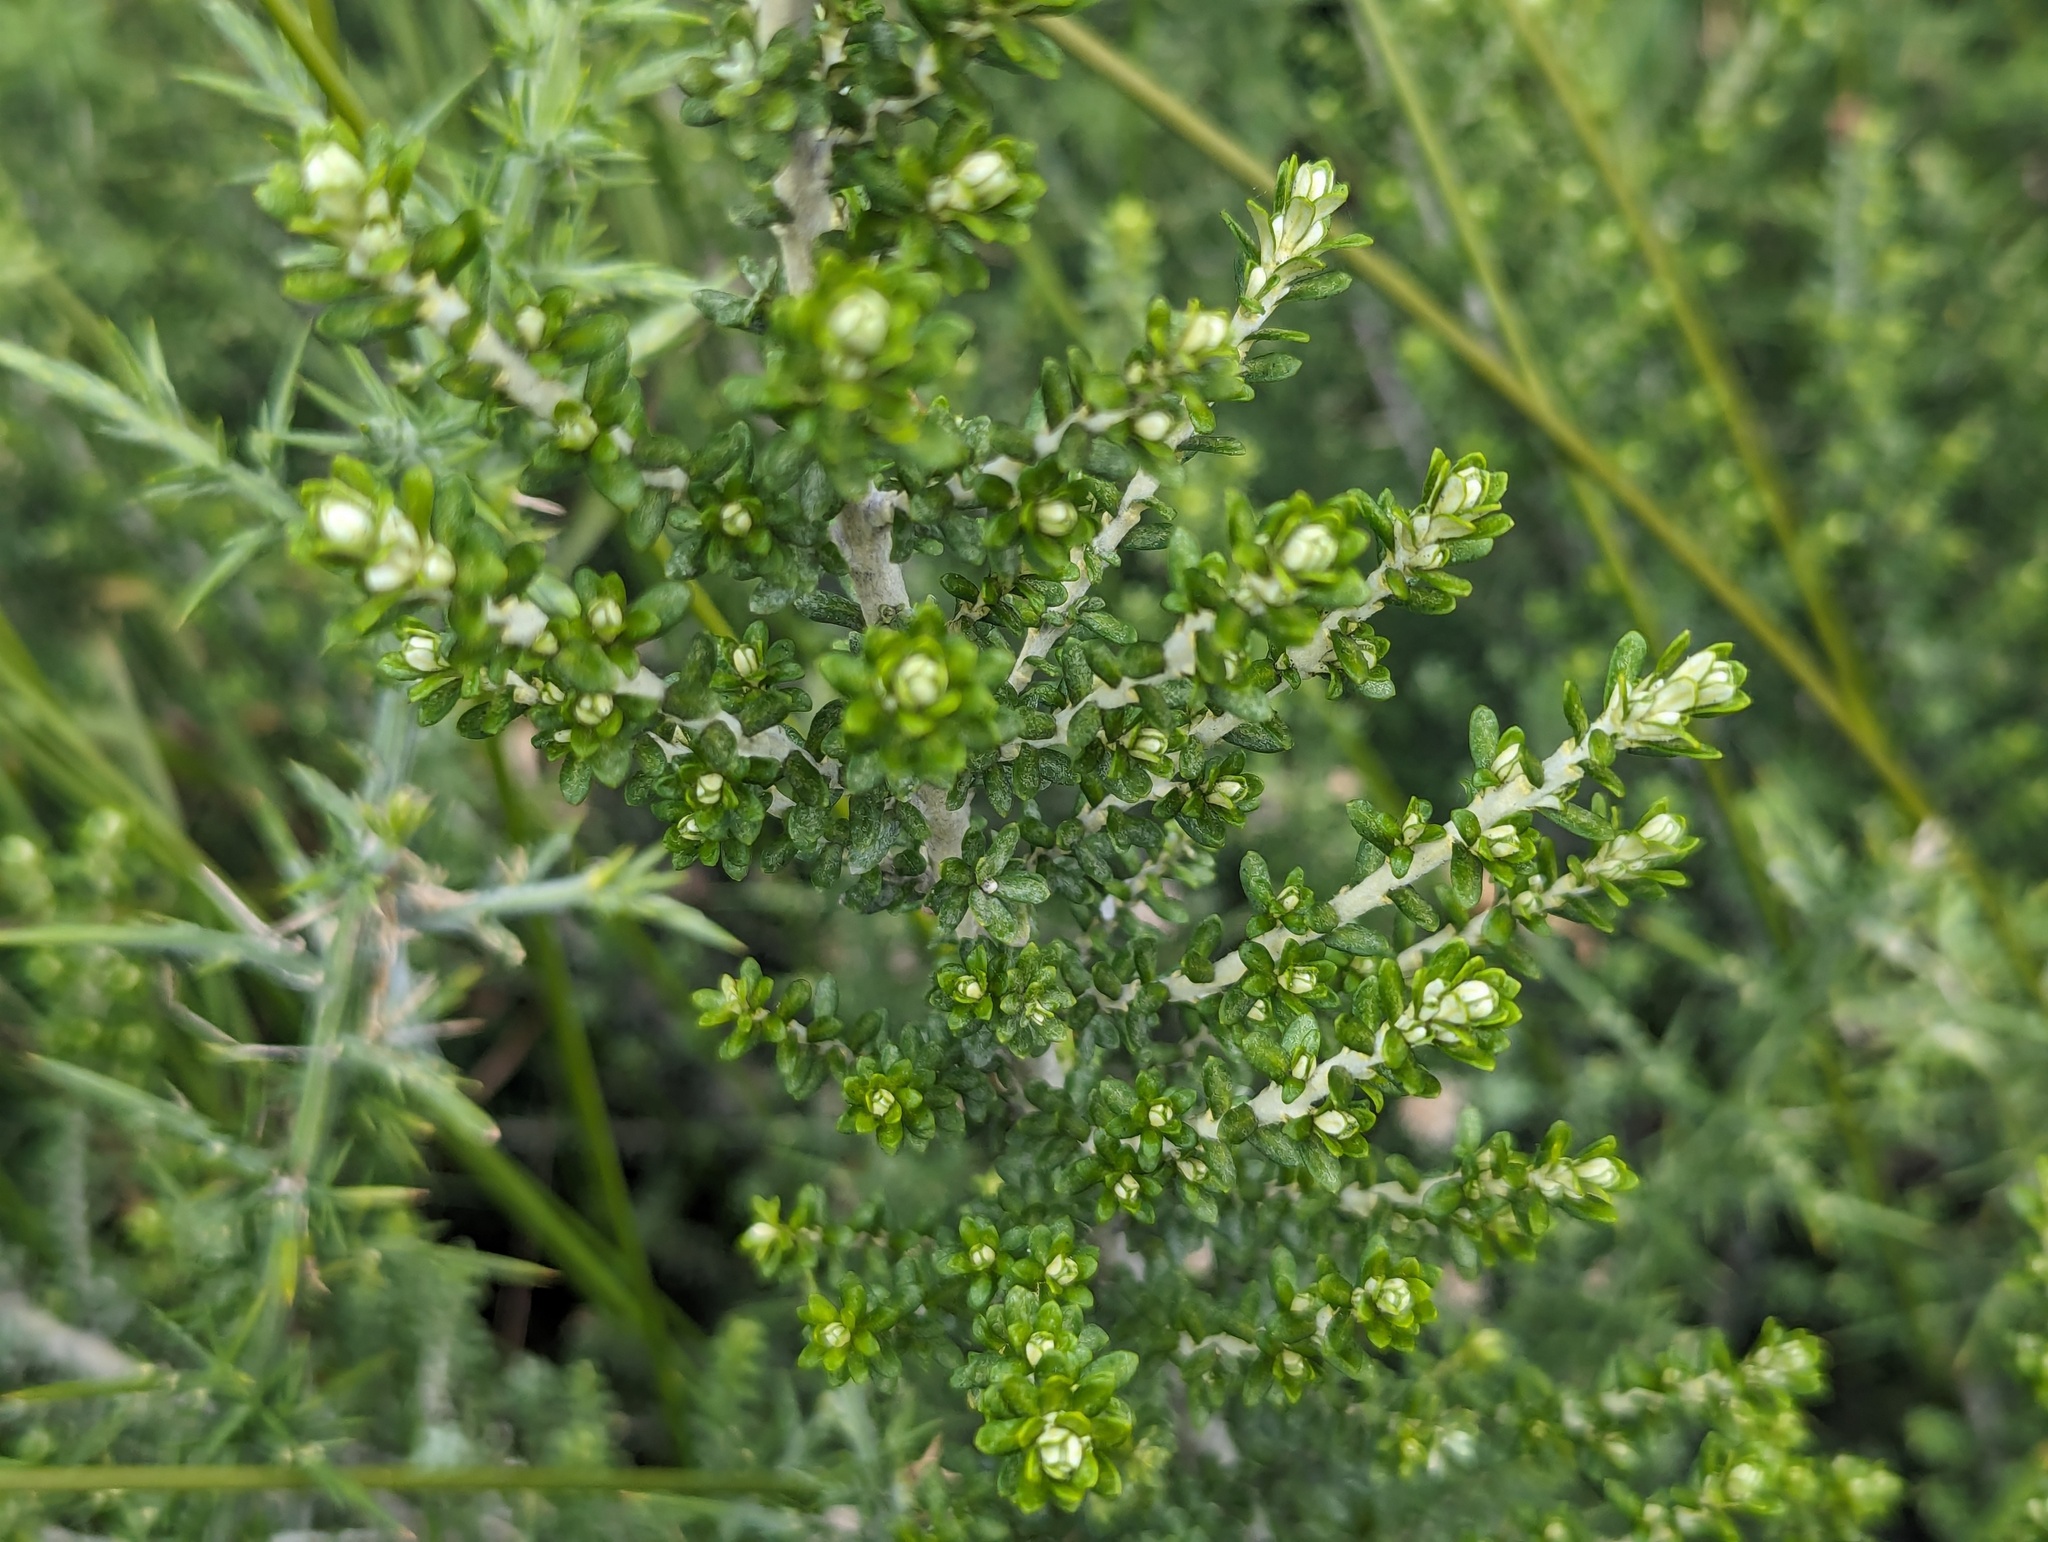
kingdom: Plantae
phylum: Tracheophyta
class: Magnoliopsida
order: Asterales
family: Asteraceae
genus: Ozothamnus
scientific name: Ozothamnus leptophyllus
